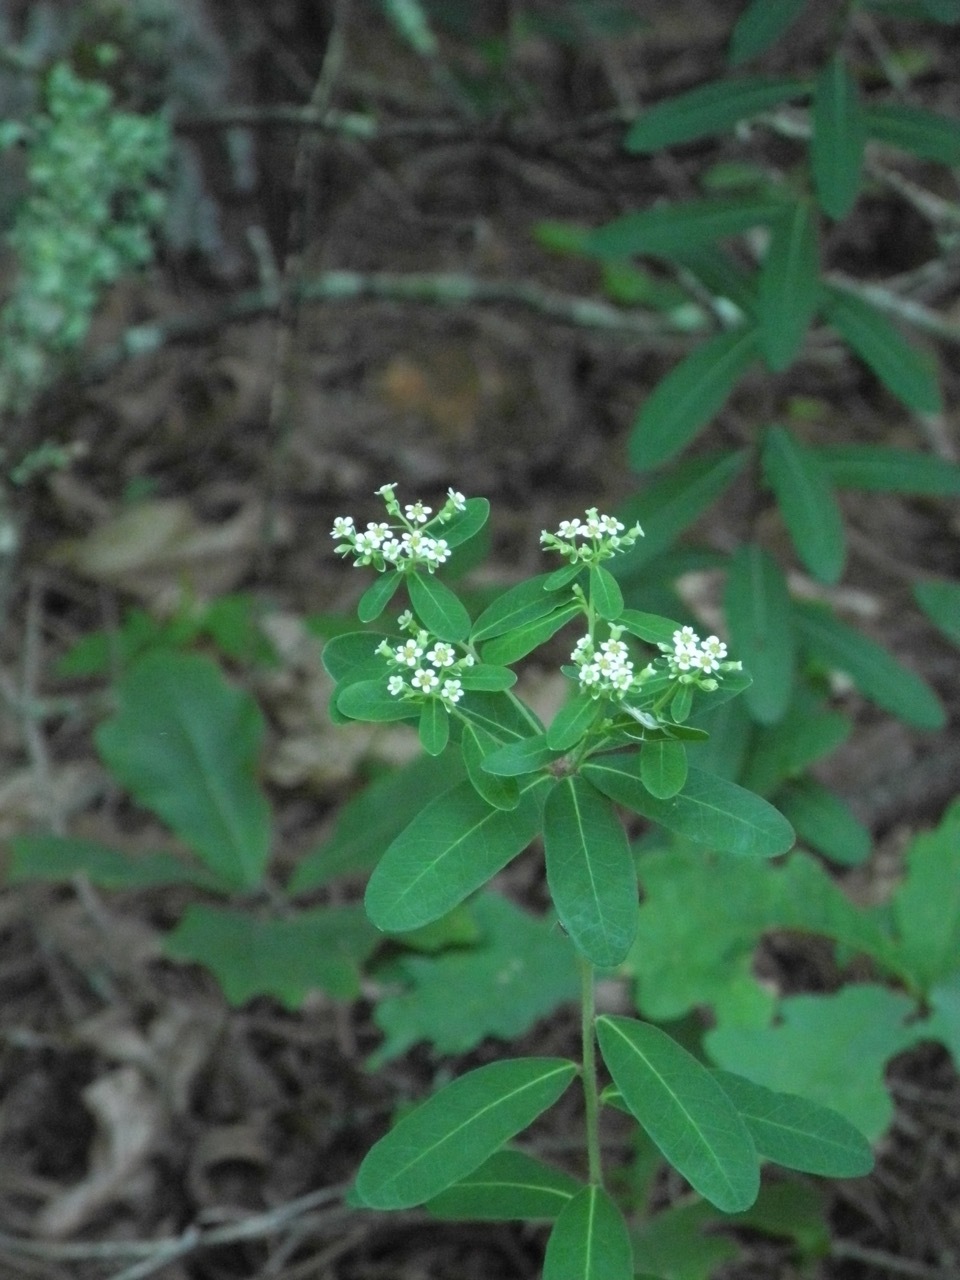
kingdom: Plantae
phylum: Tracheophyta
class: Magnoliopsida
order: Malpighiales
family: Euphorbiaceae
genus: Euphorbia
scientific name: Euphorbia corollata
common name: Flowering spurge
